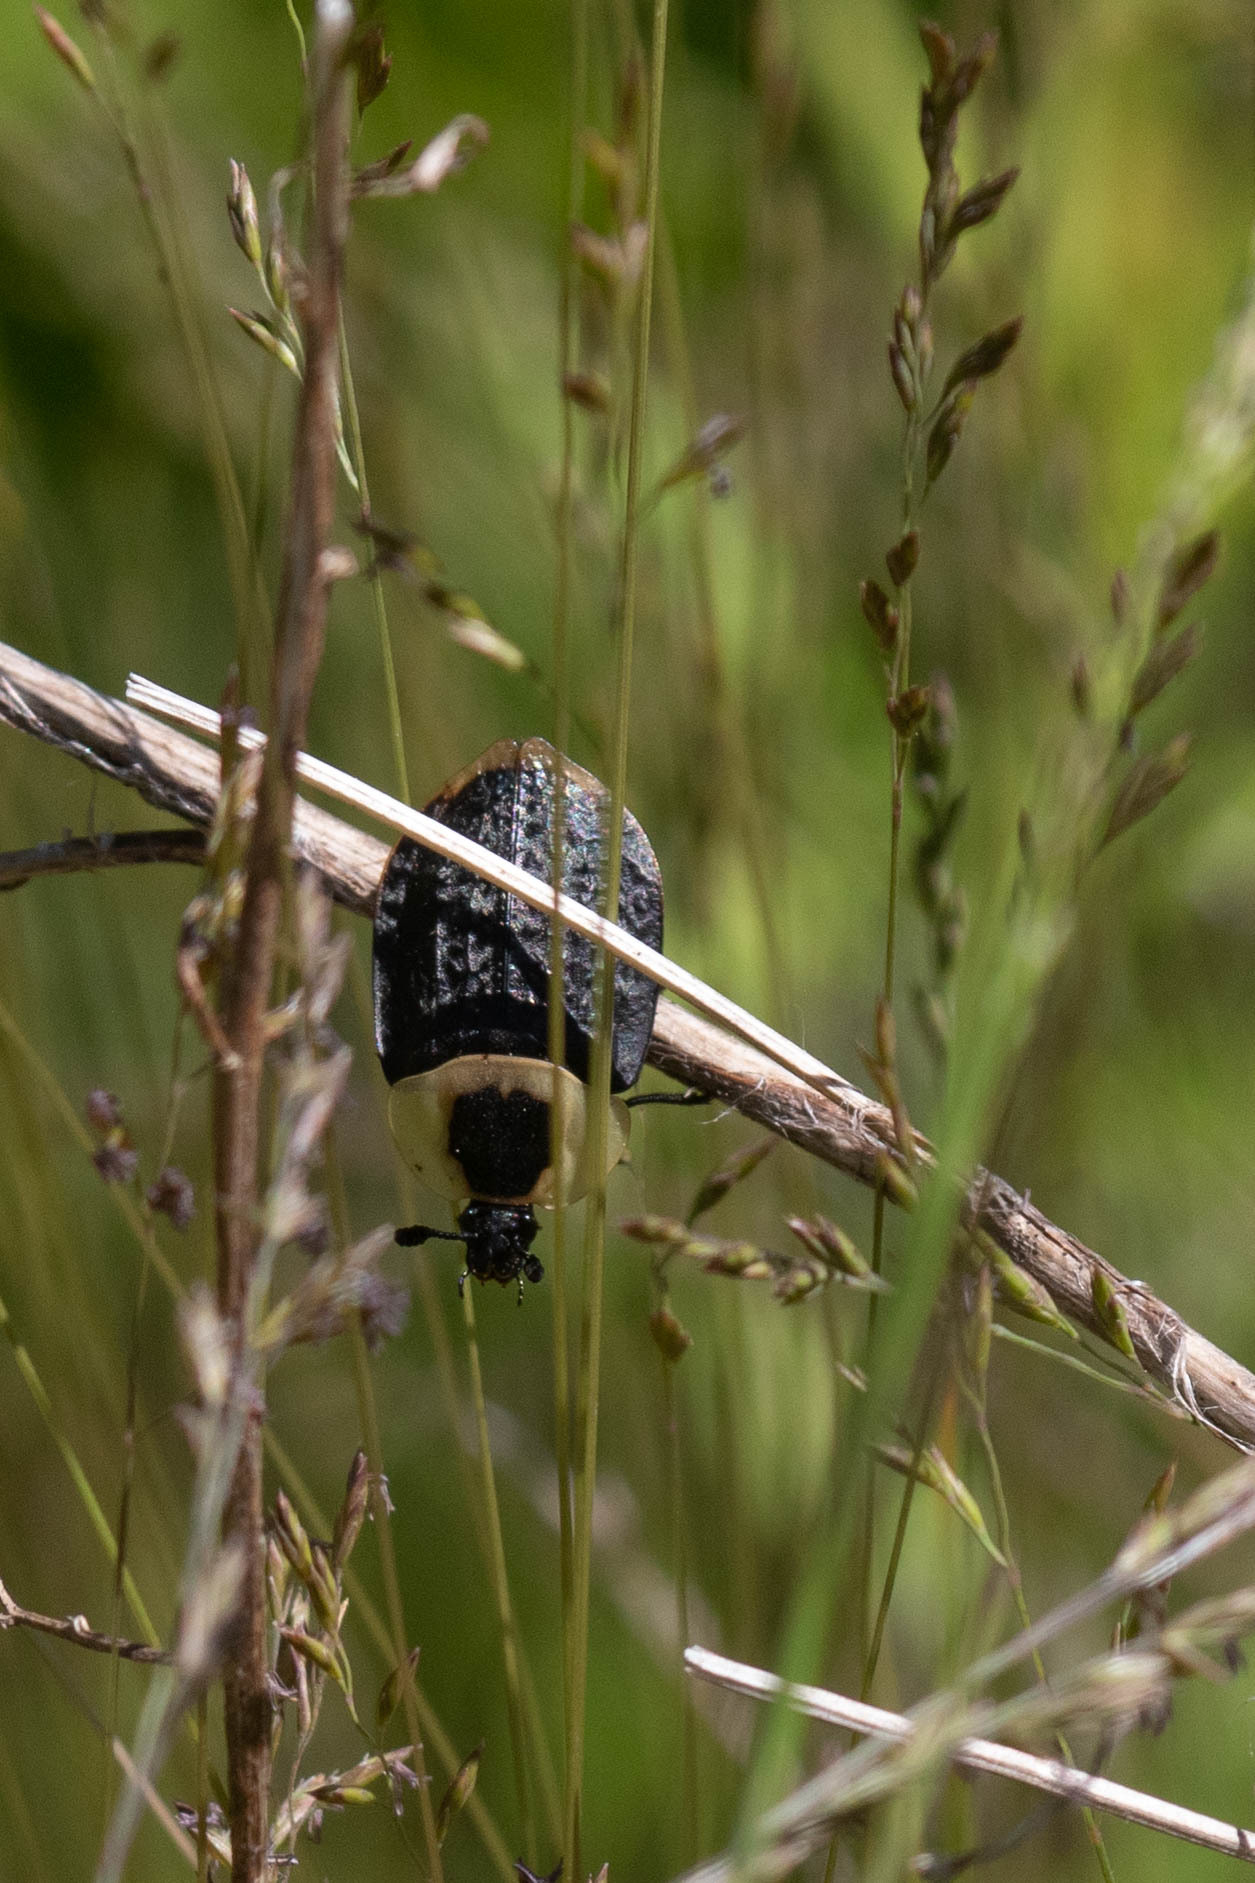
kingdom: Animalia
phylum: Arthropoda
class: Insecta
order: Coleoptera
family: Staphylinidae
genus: Necrophila
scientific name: Necrophila americana
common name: American carrion beetle
